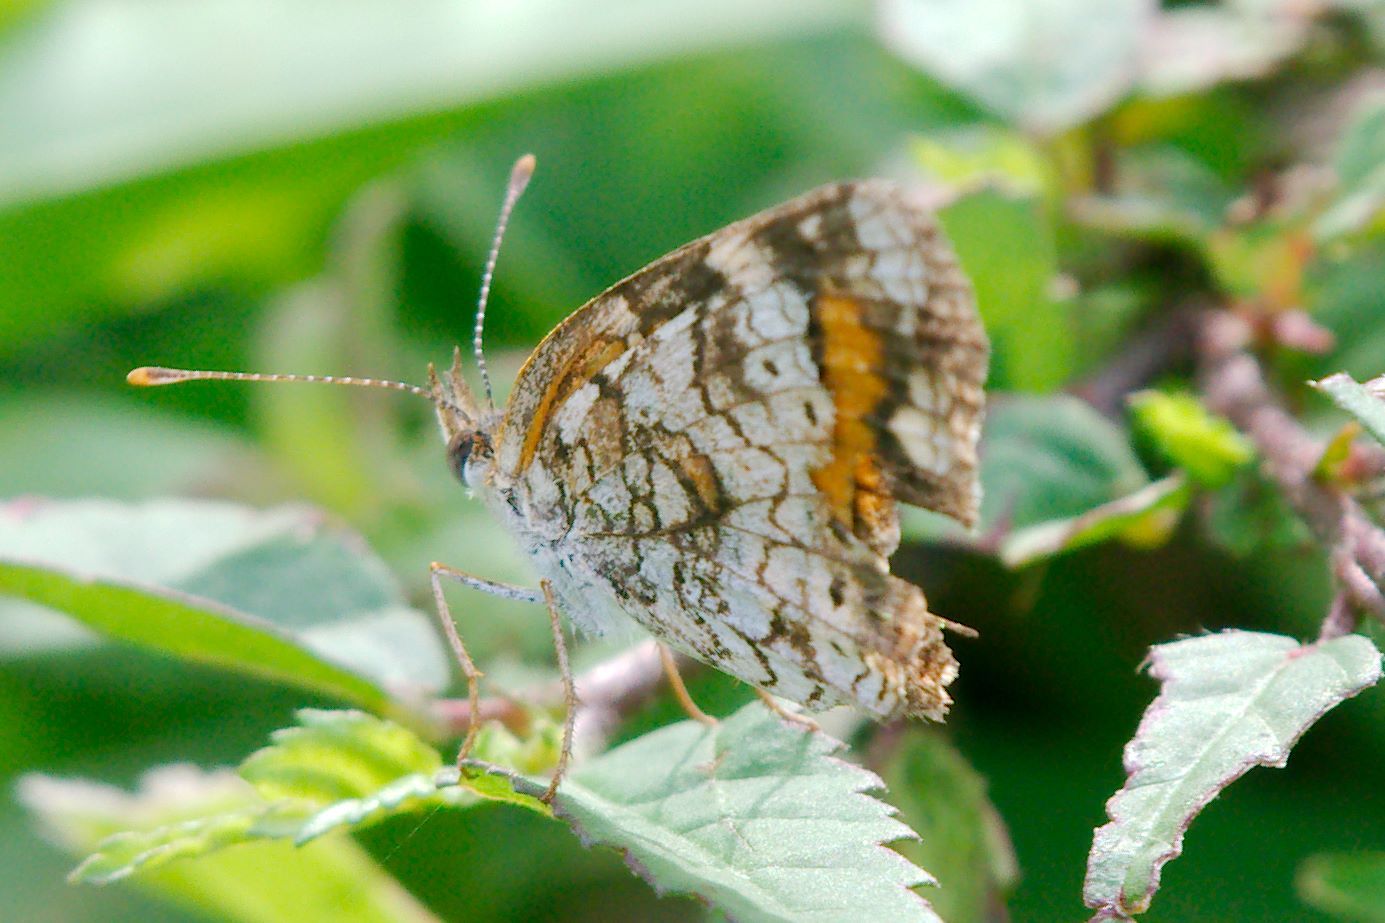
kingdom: Animalia
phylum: Arthropoda
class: Insecta
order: Lepidoptera
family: Nymphalidae
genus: Phyciodes
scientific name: Phyciodes phaon
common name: Phaon crescent
